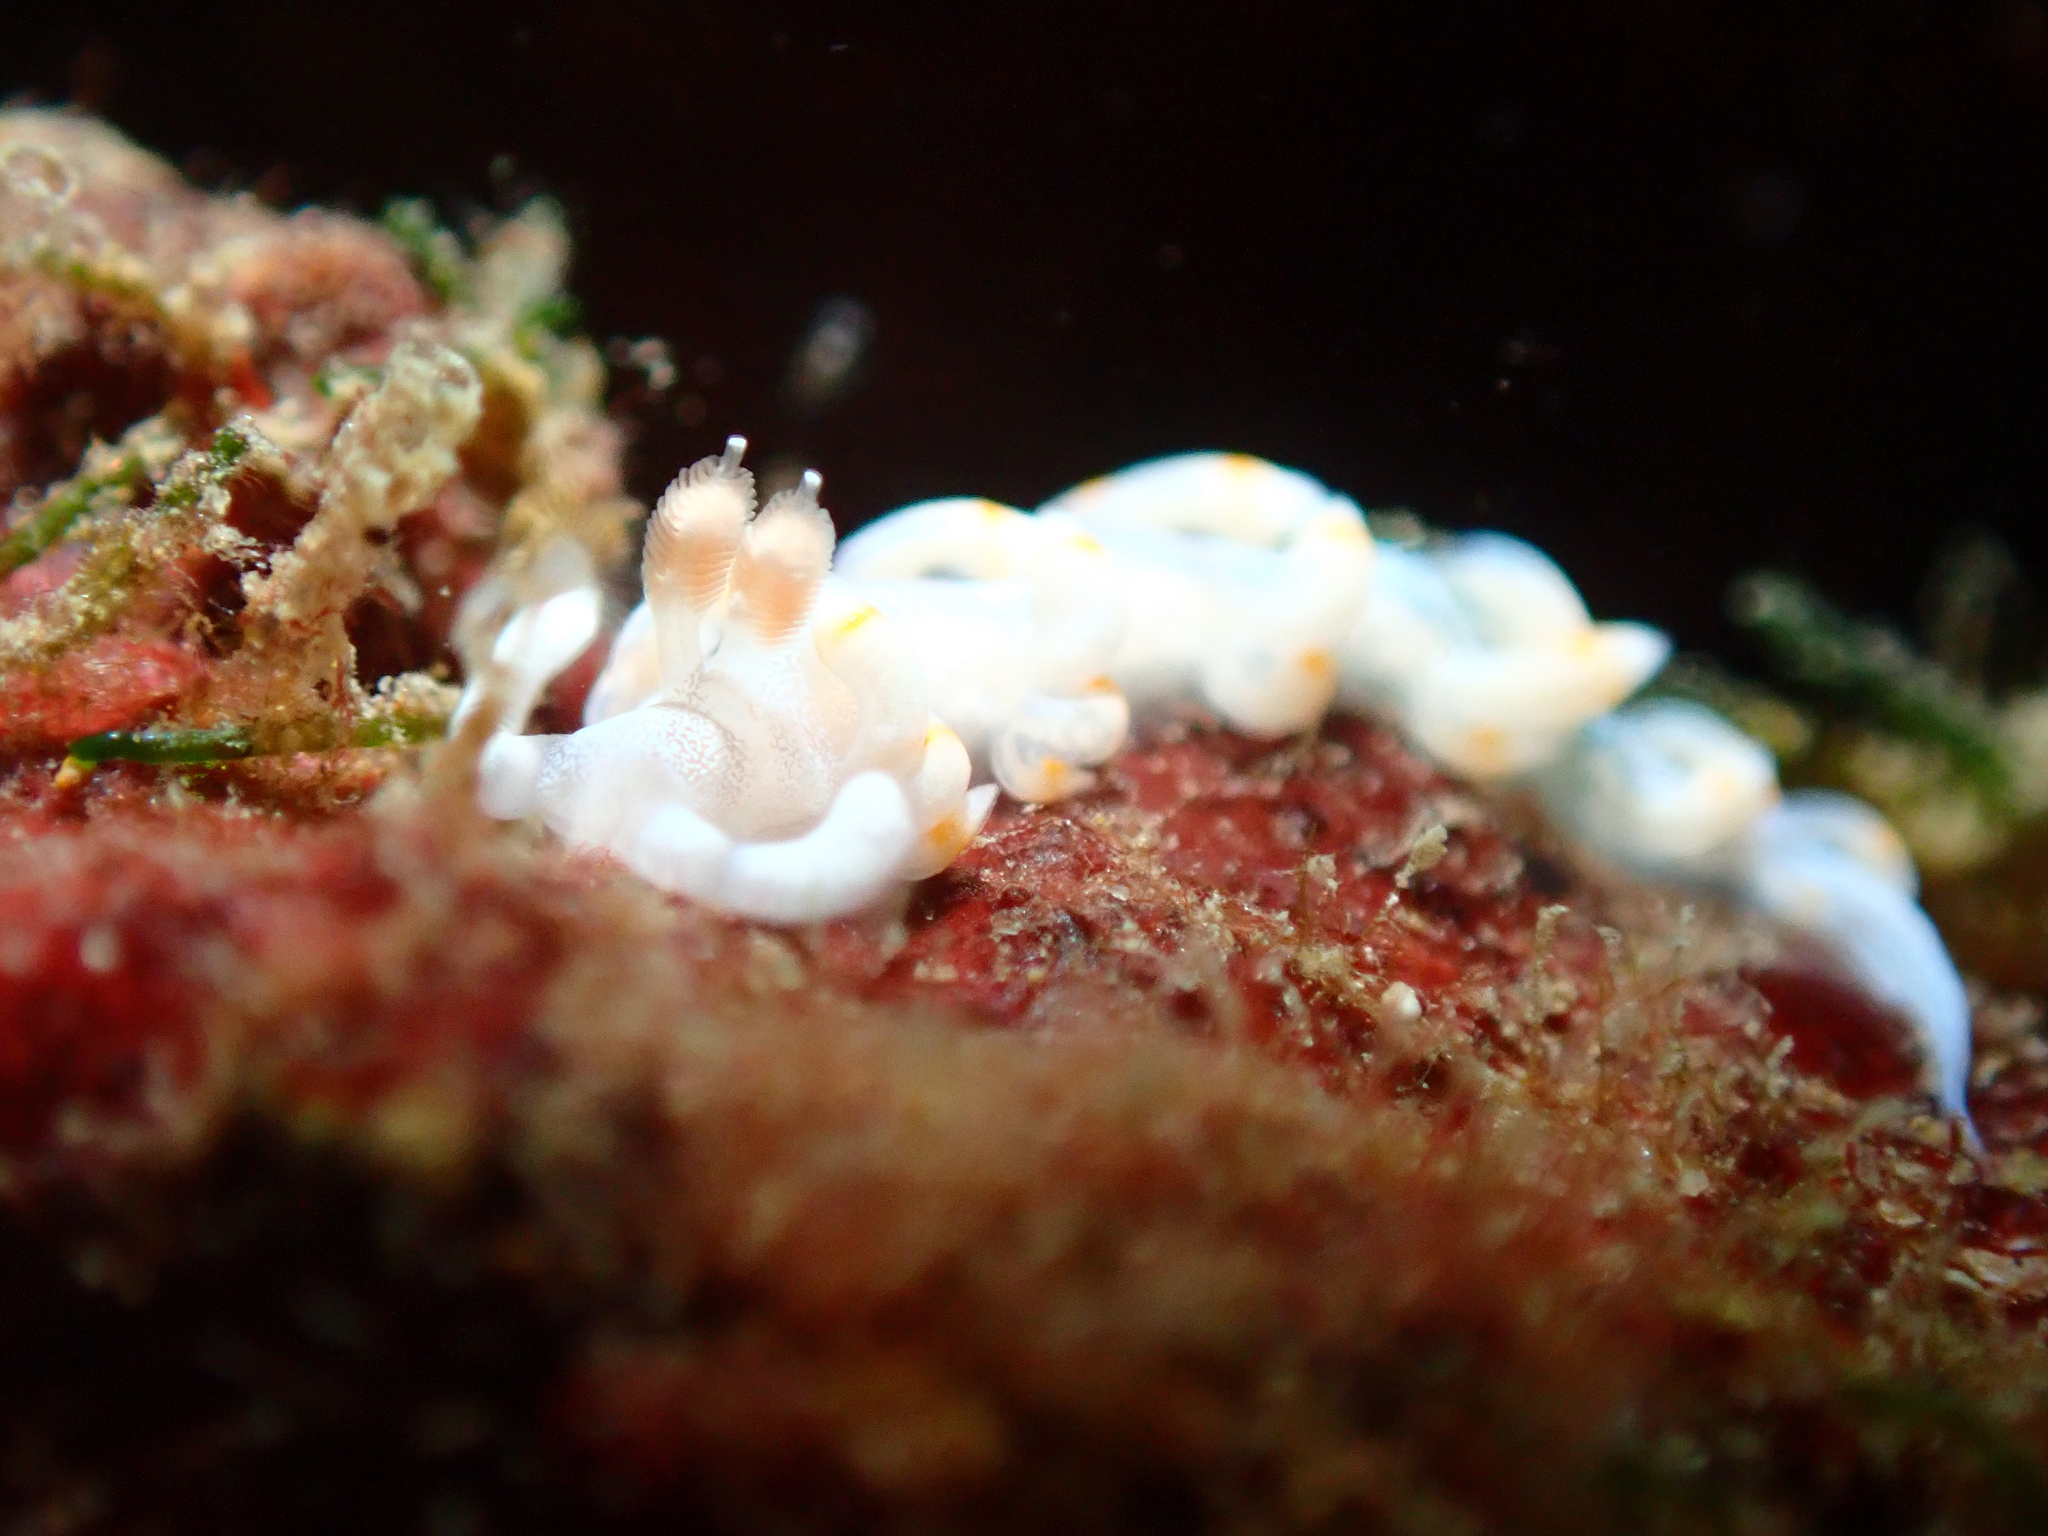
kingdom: Animalia
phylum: Mollusca
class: Gastropoda
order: Nudibranchia
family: Samlidae
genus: Samla
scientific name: Samla bicolor
